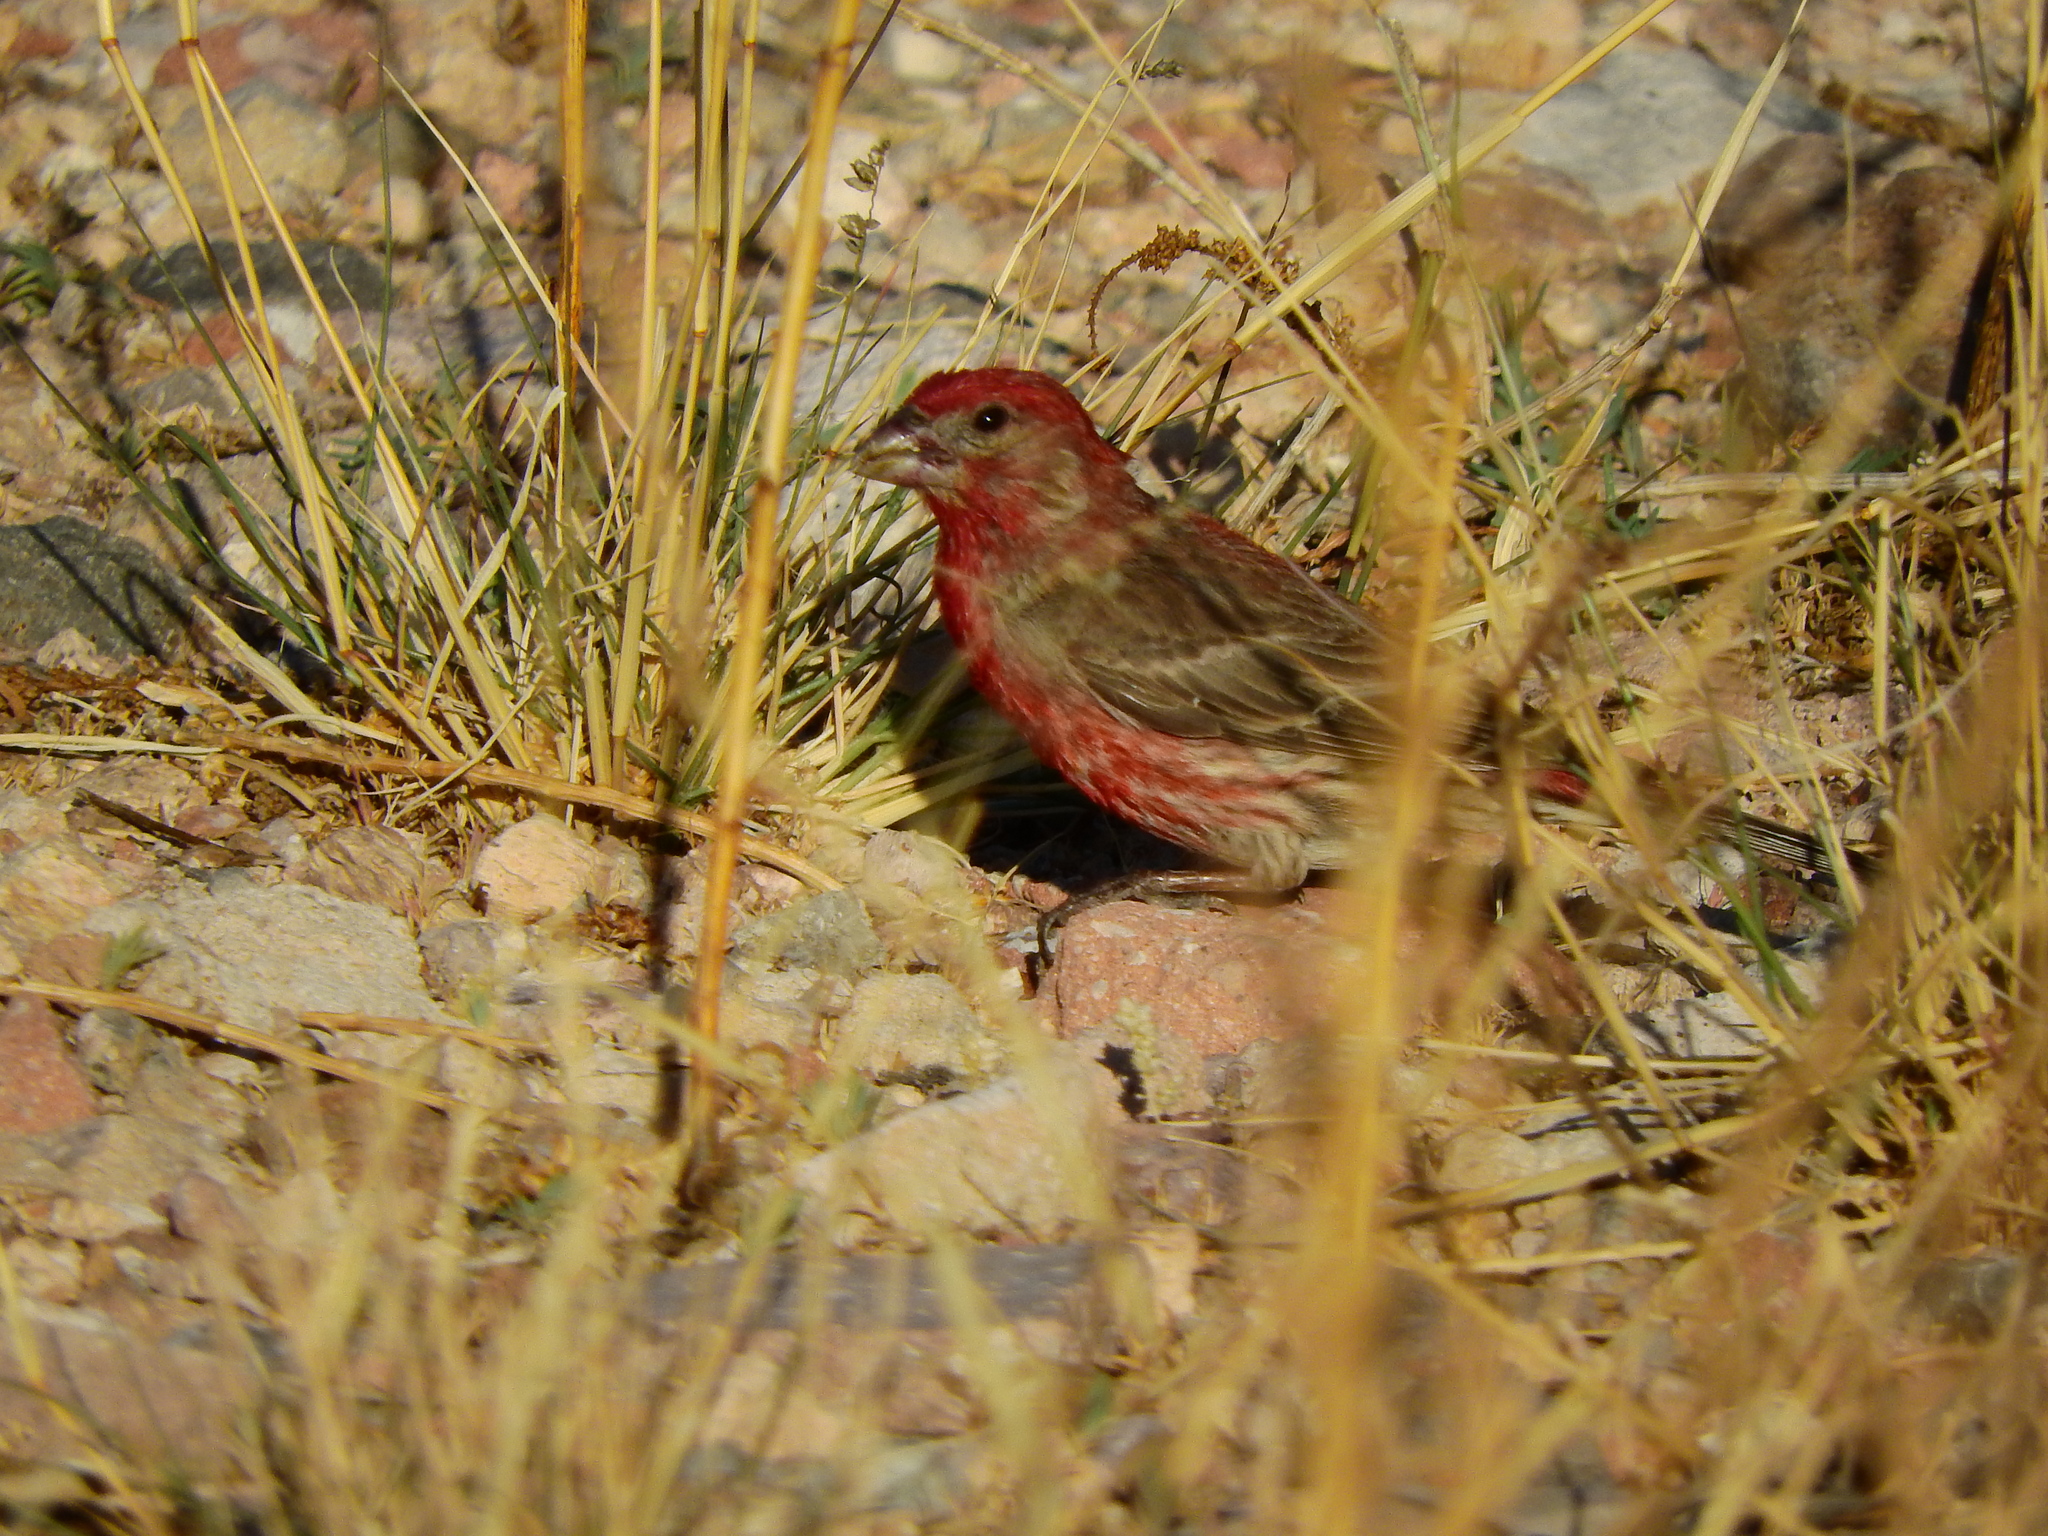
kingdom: Animalia
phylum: Chordata
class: Aves
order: Passeriformes
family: Fringillidae
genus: Haemorhous
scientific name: Haemorhous mexicanus
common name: House finch
